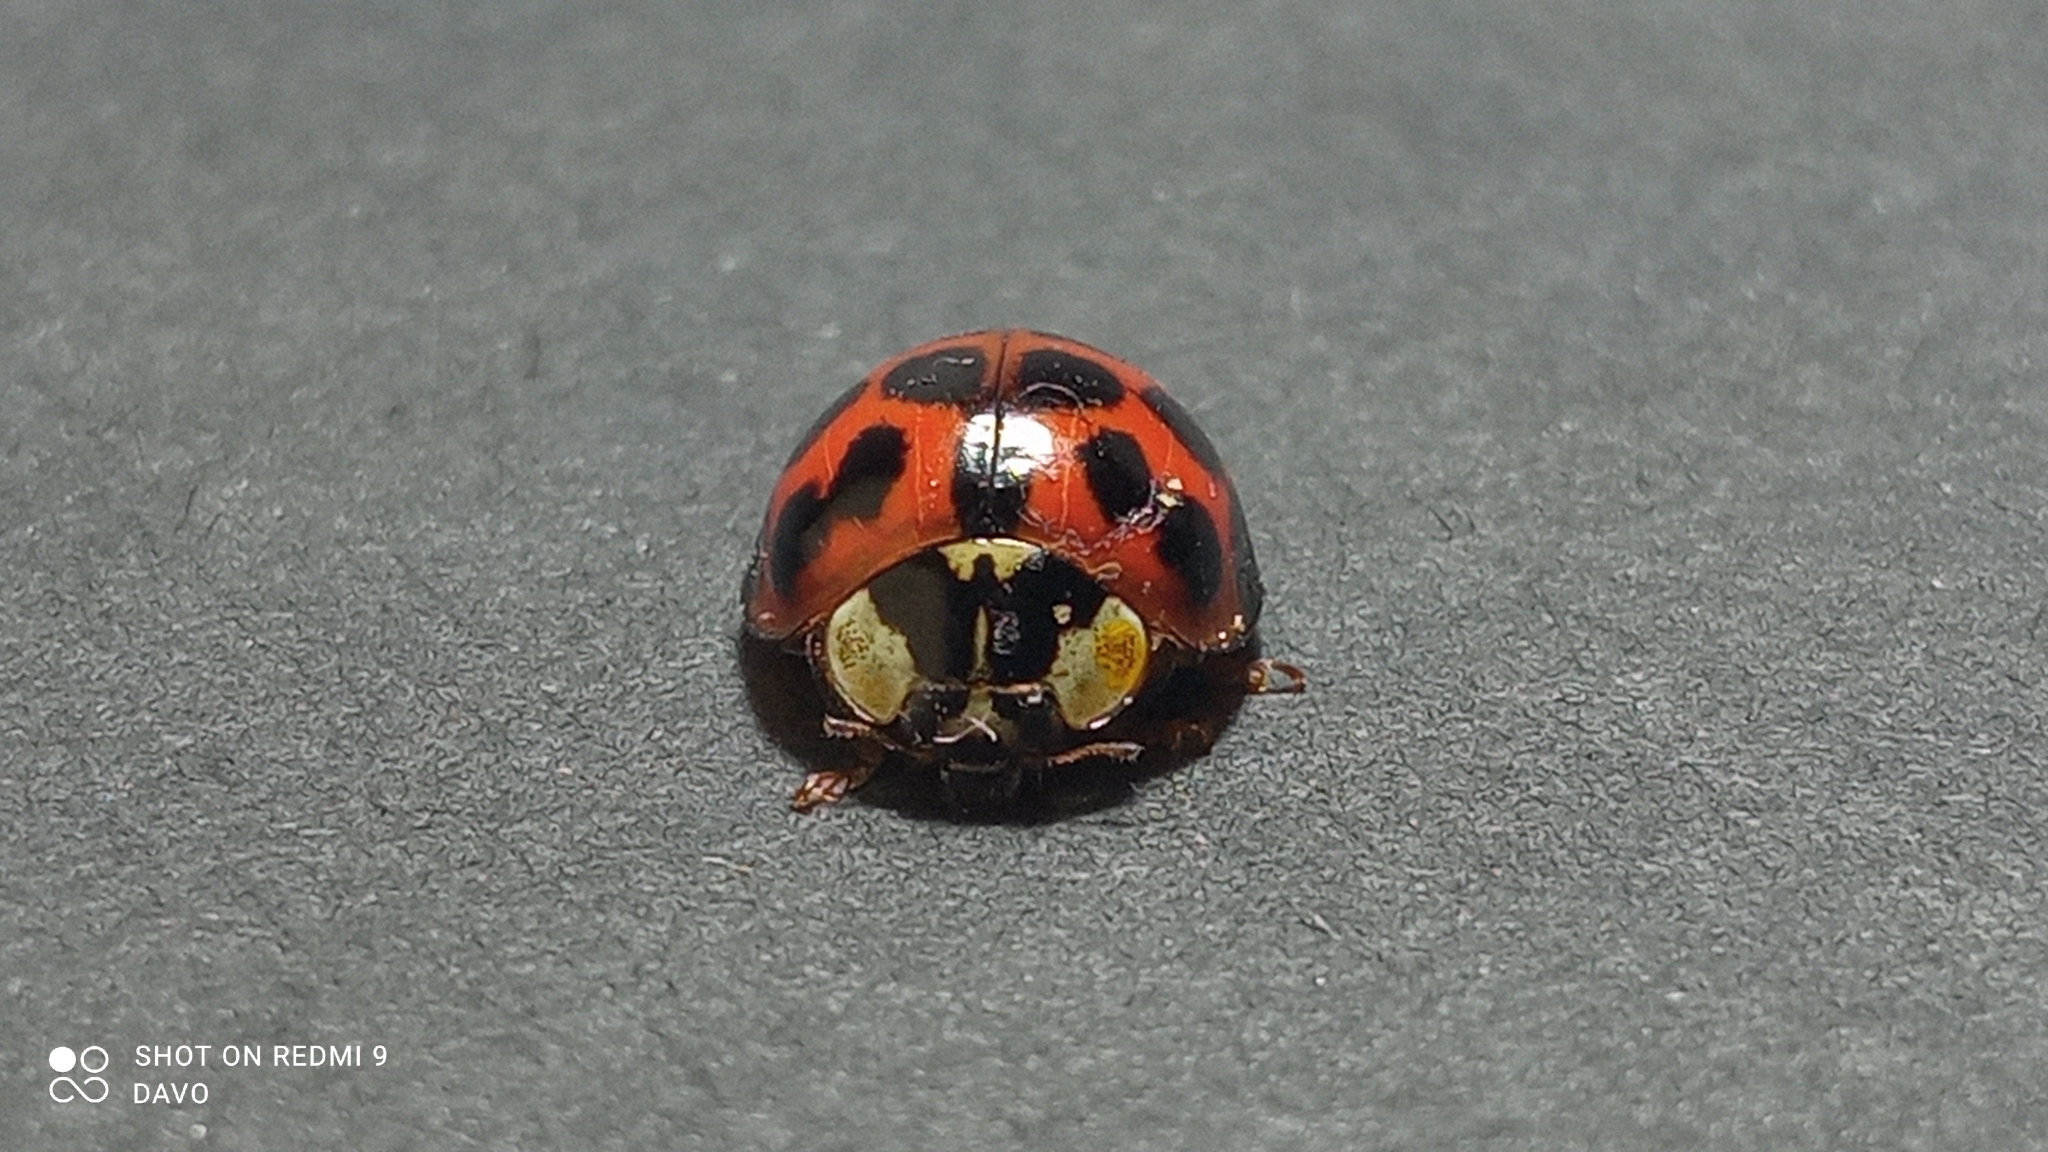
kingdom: Animalia
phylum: Arthropoda
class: Insecta
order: Coleoptera
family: Coccinellidae
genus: Harmonia
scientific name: Harmonia axyridis
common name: Harlequin ladybird
